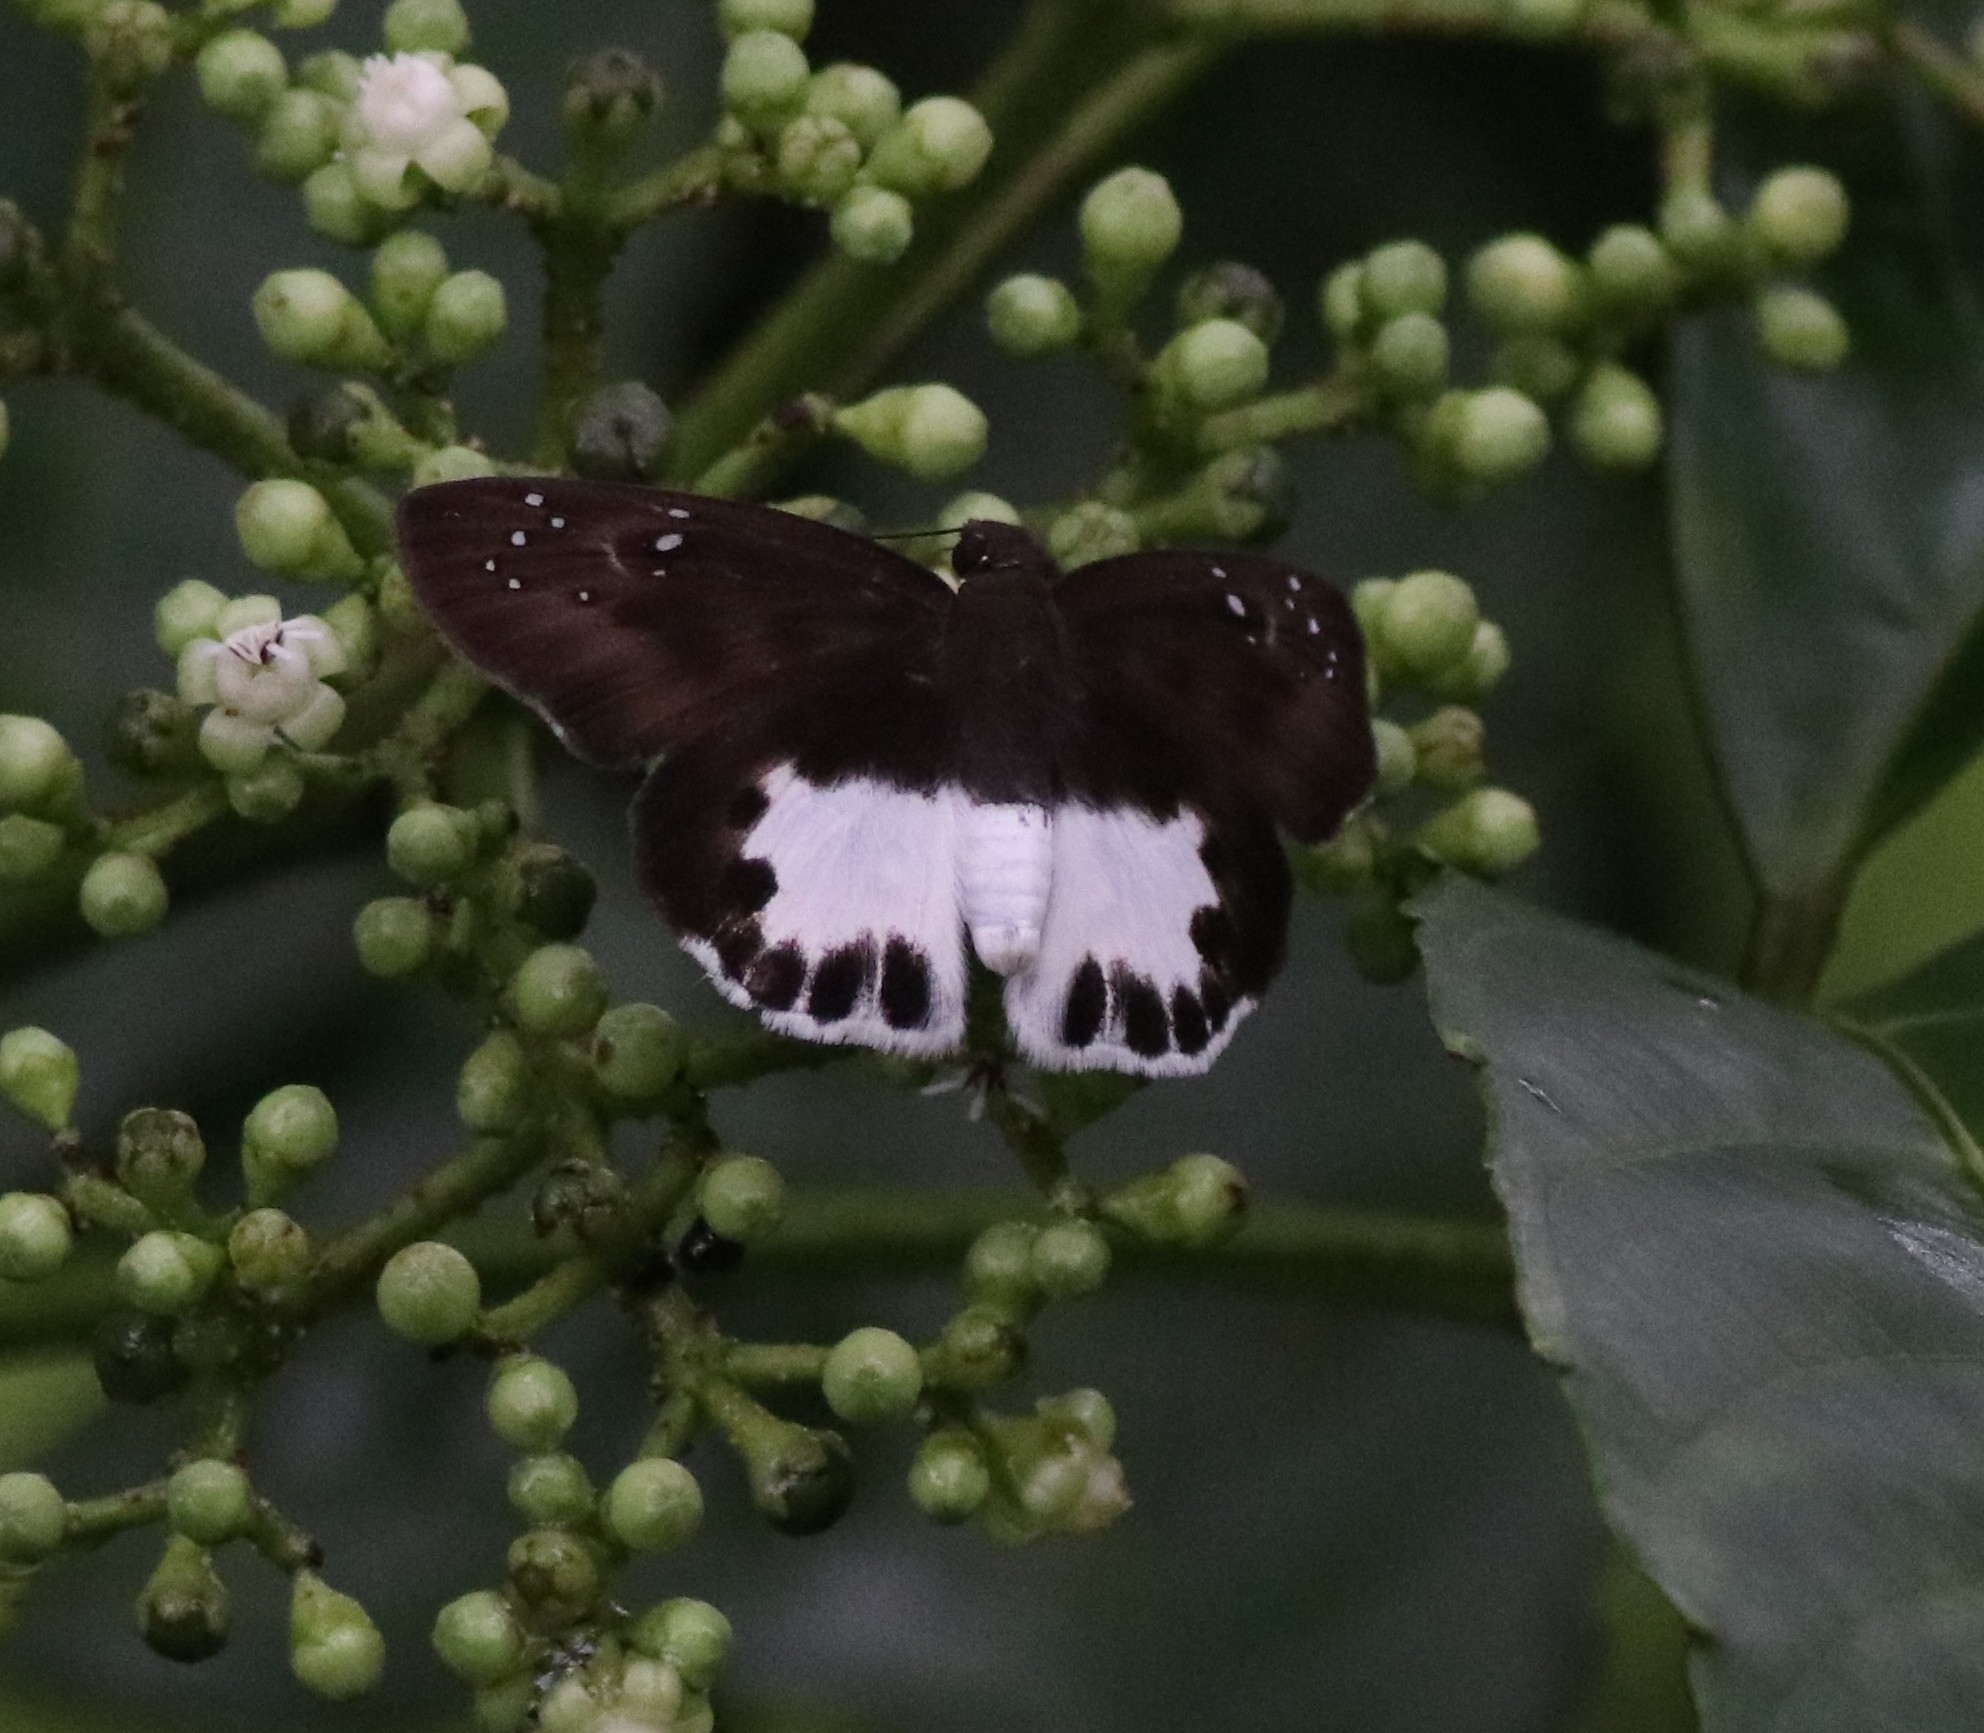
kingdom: Animalia
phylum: Arthropoda
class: Insecta
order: Lepidoptera
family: Hesperiidae
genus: Tagiades
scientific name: Tagiades litigiosa
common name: Water snow flat
